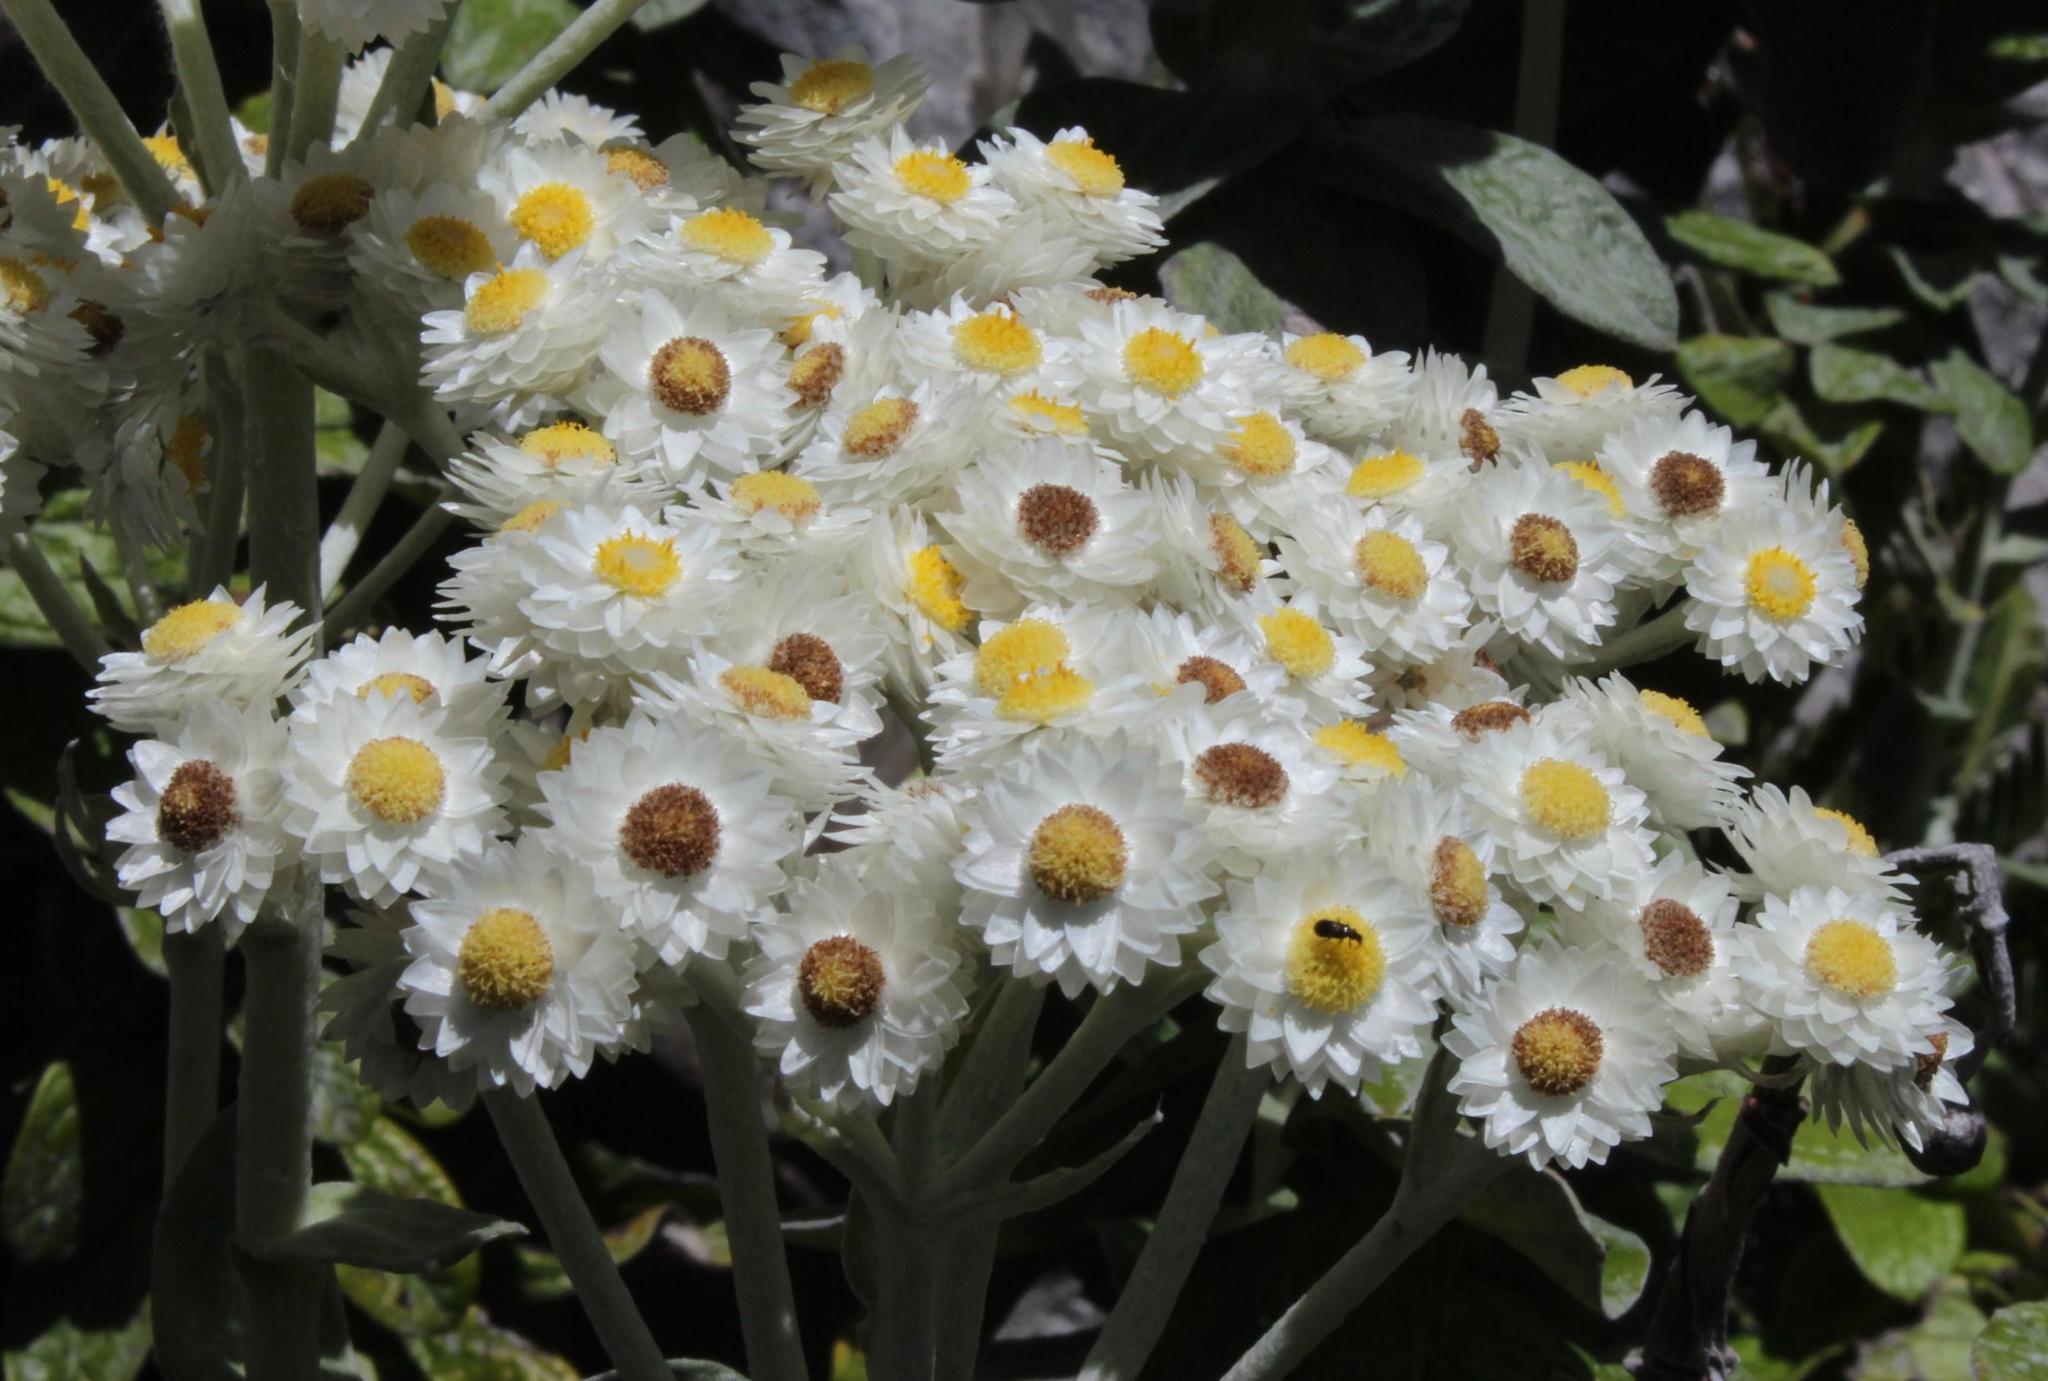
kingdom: Plantae
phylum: Tracheophyta
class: Magnoliopsida
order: Asterales
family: Asteraceae
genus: Helichrysum
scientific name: Helichrysum fruticans
